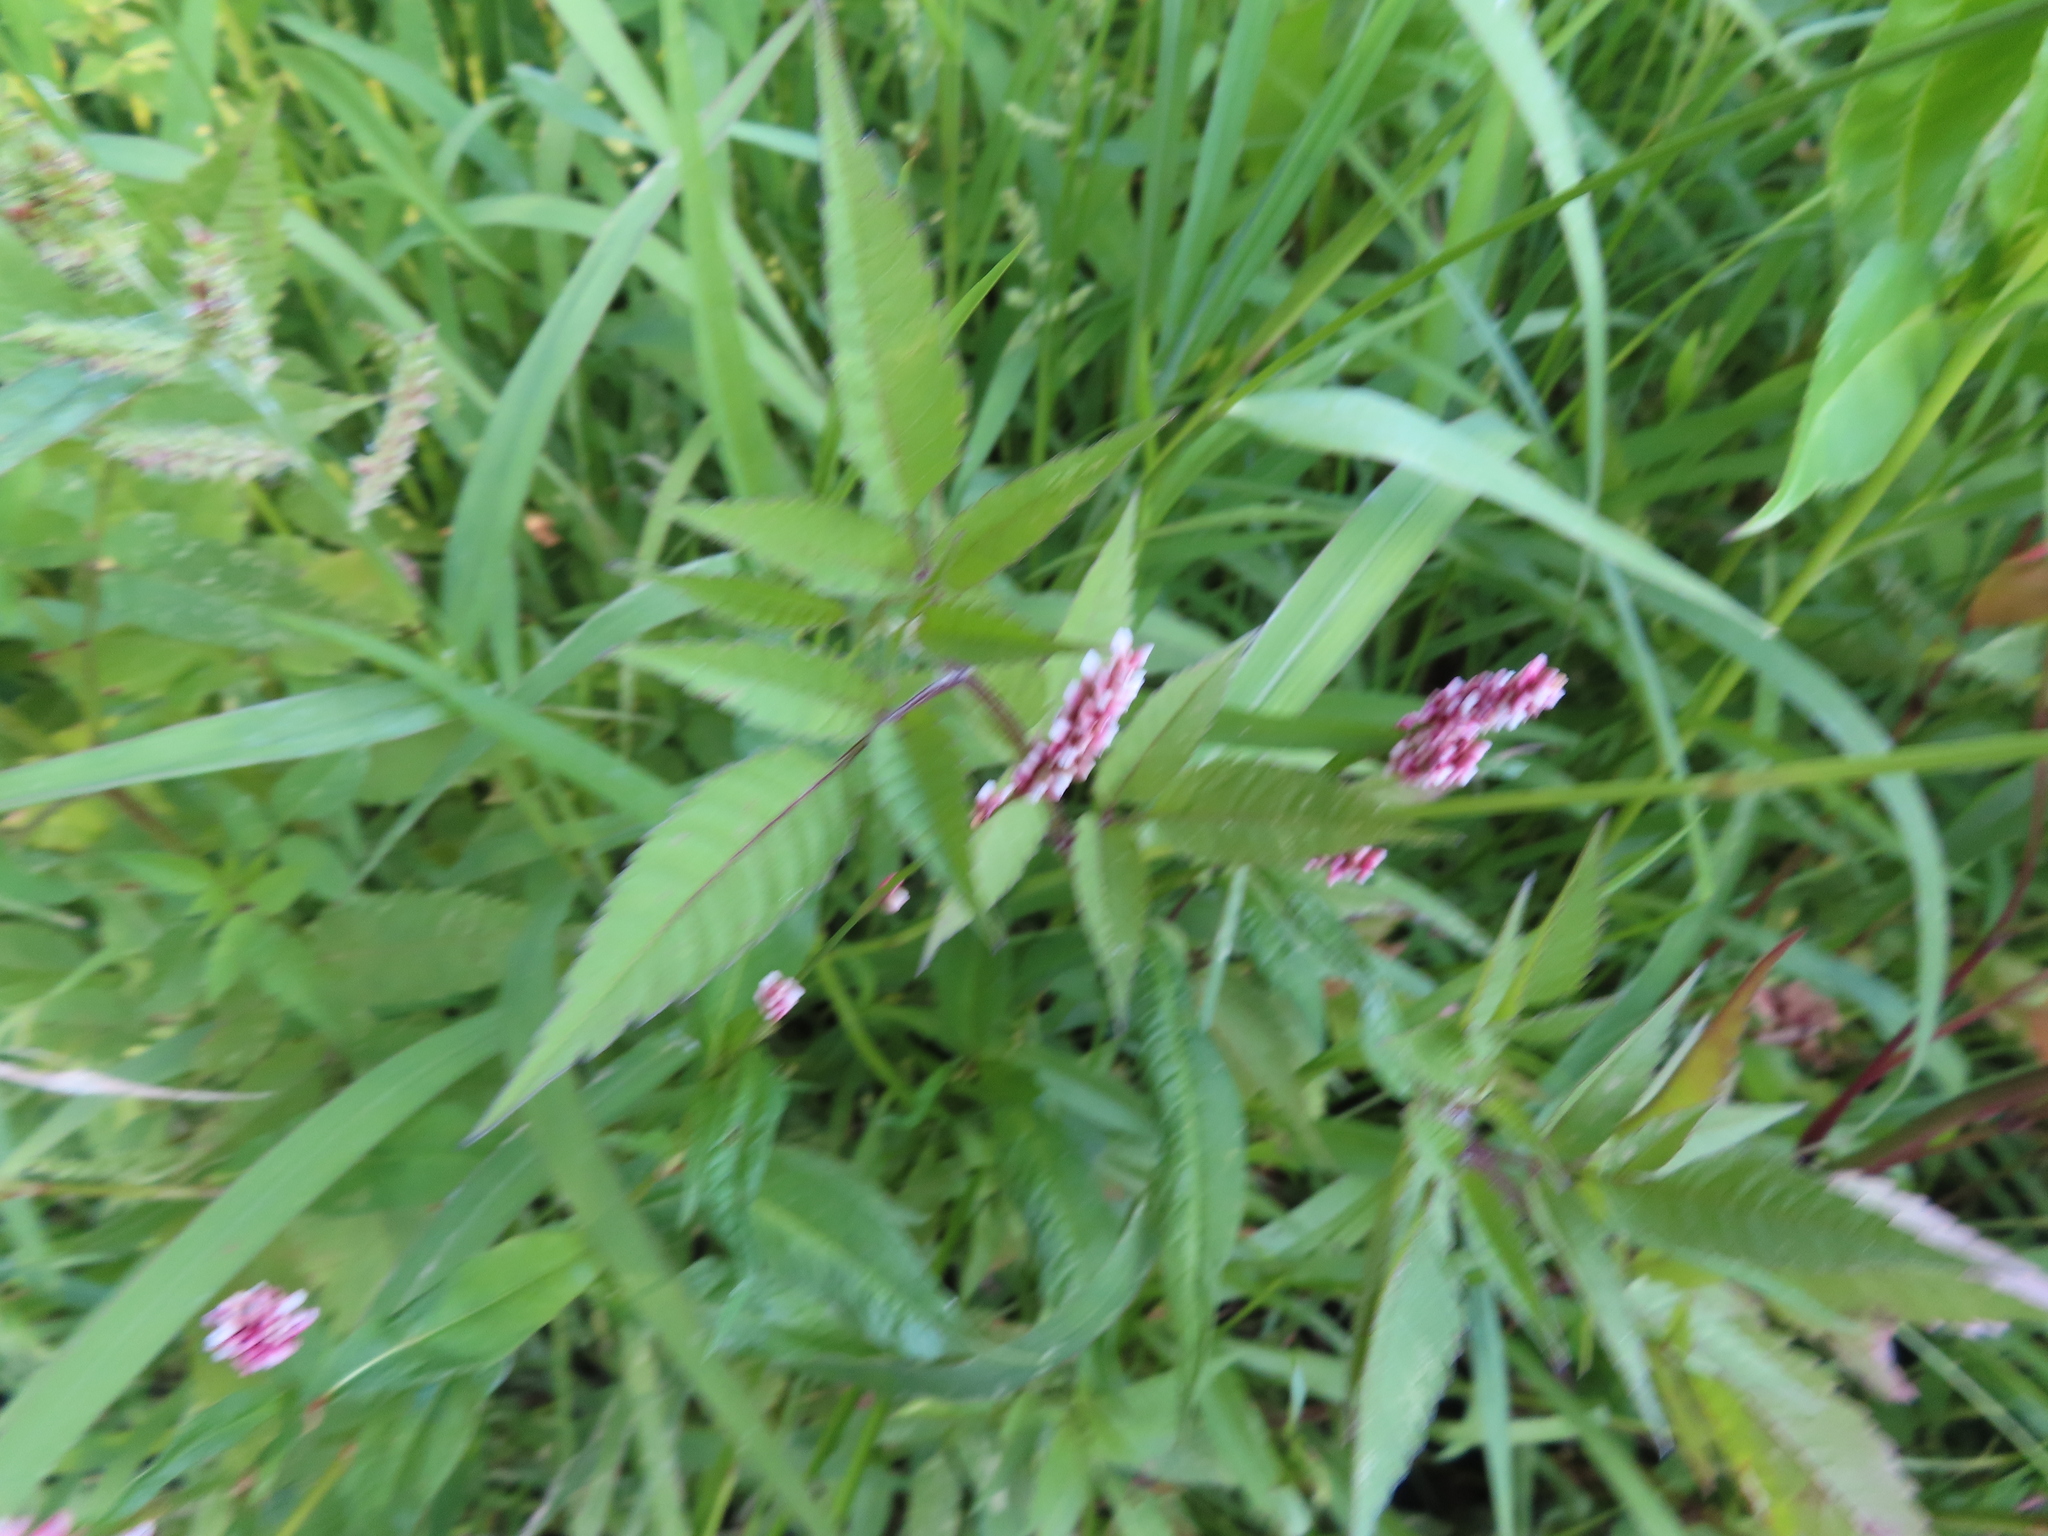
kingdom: Plantae
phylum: Tracheophyta
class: Magnoliopsida
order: Caryophyllales
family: Polygonaceae
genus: Persicaria
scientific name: Persicaria longiseta
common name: Bristly lady's-thumb
